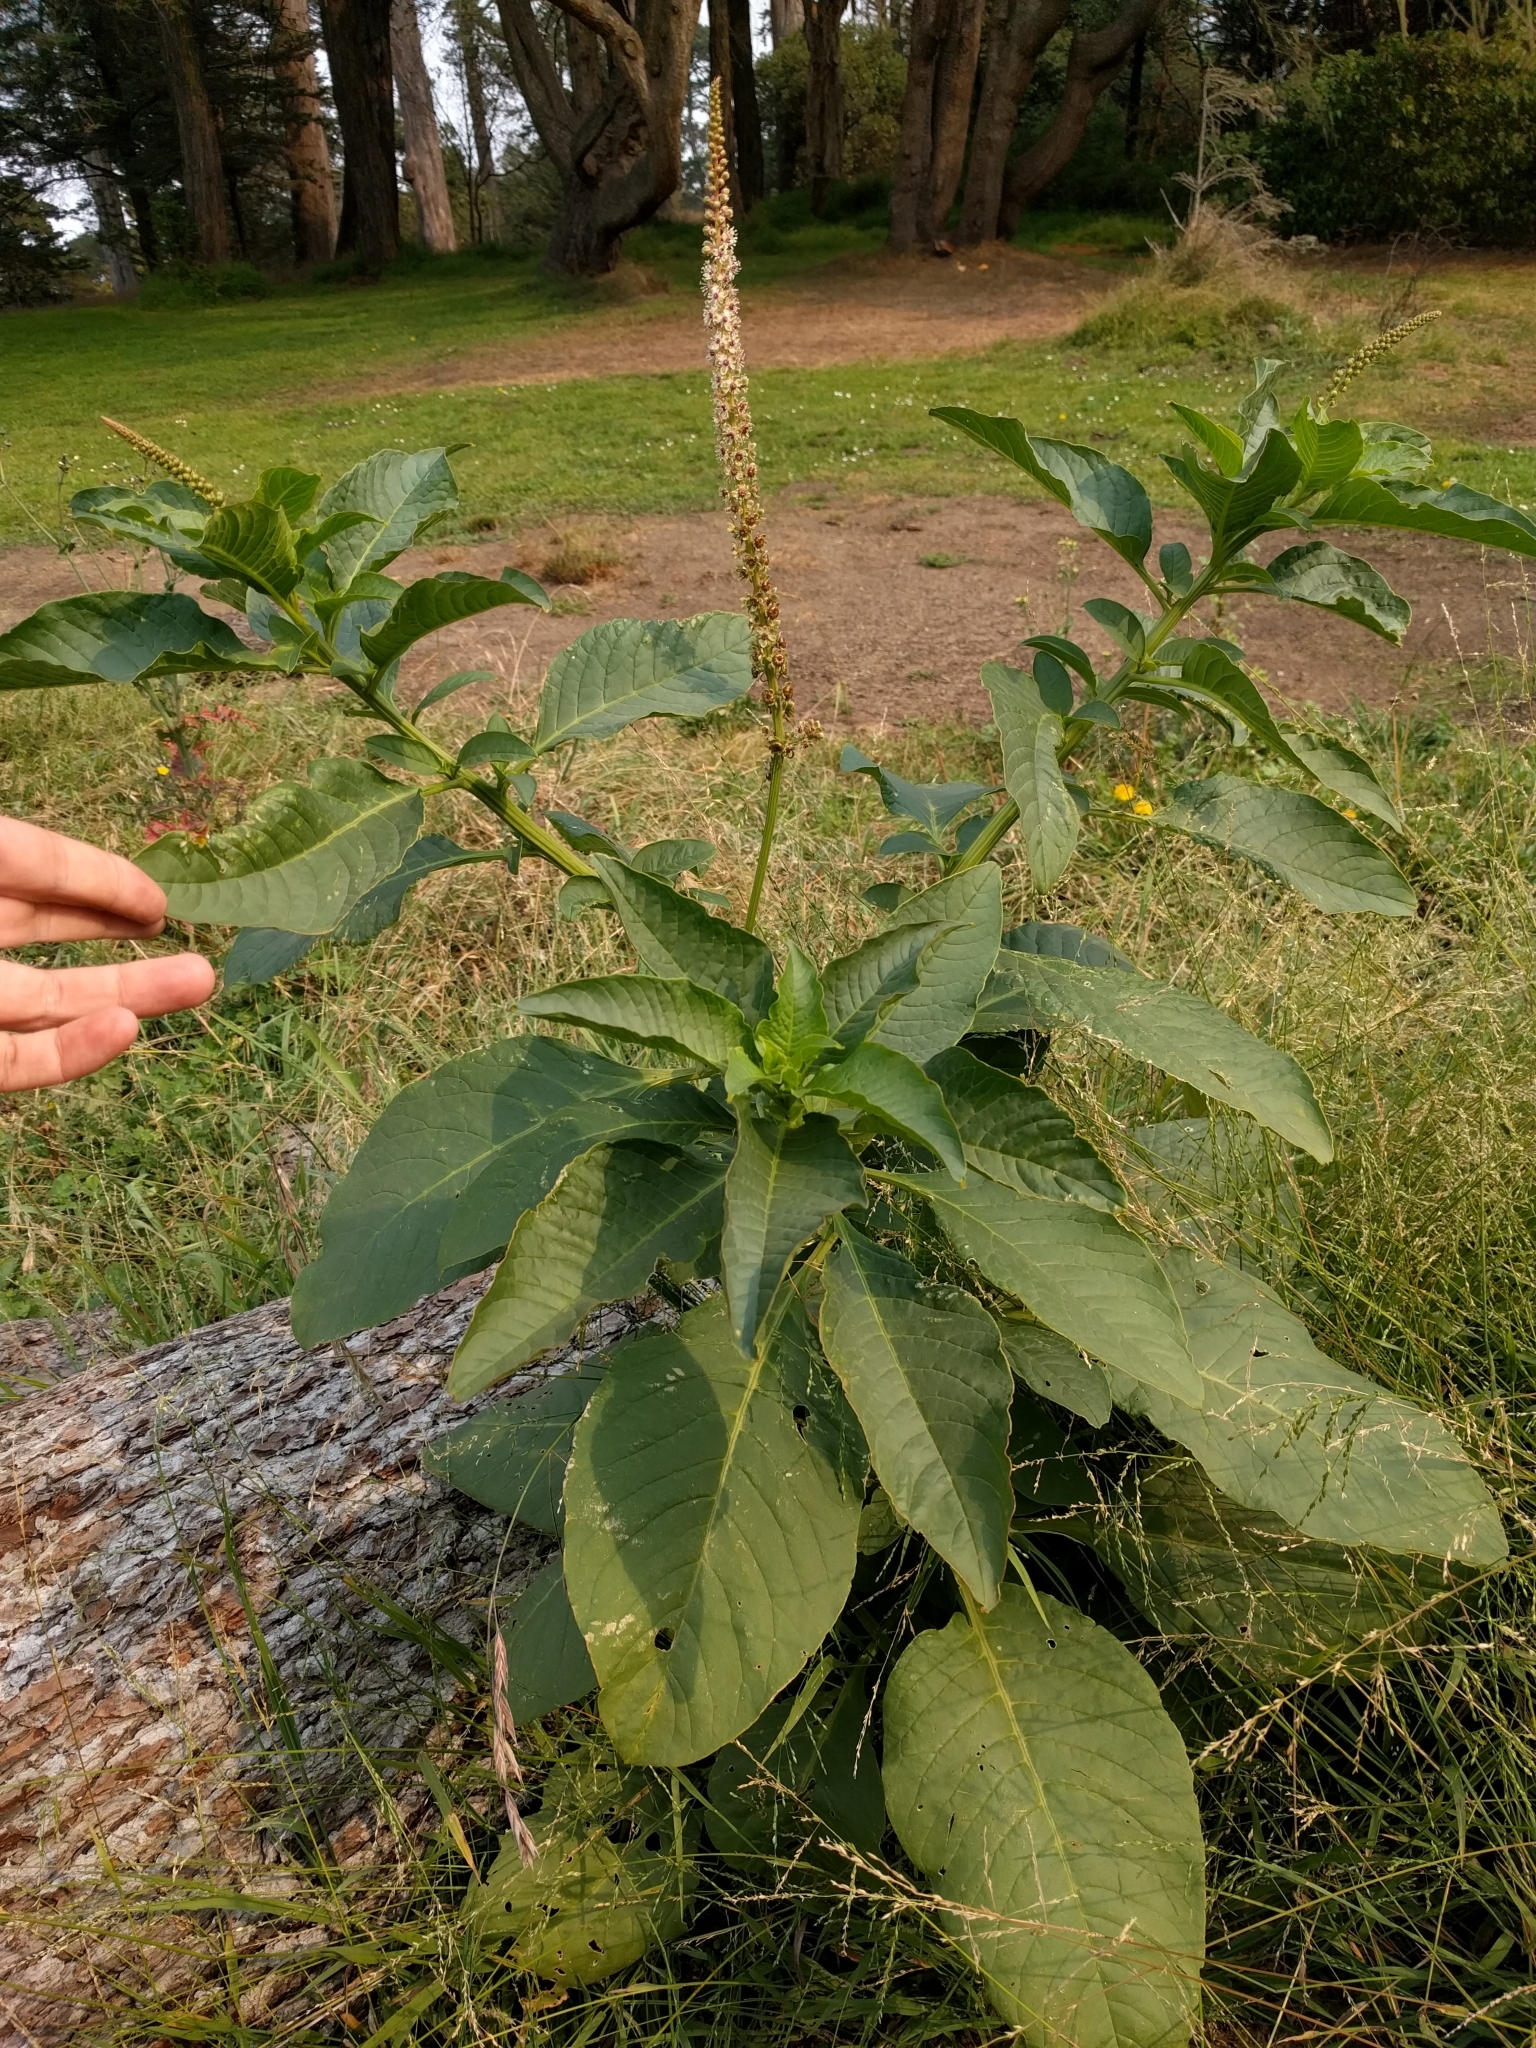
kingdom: Plantae
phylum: Tracheophyta
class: Magnoliopsida
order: Caryophyllales
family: Phytolaccaceae
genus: Phytolacca
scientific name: Phytolacca heterotepala
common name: Mexican pokeweed
